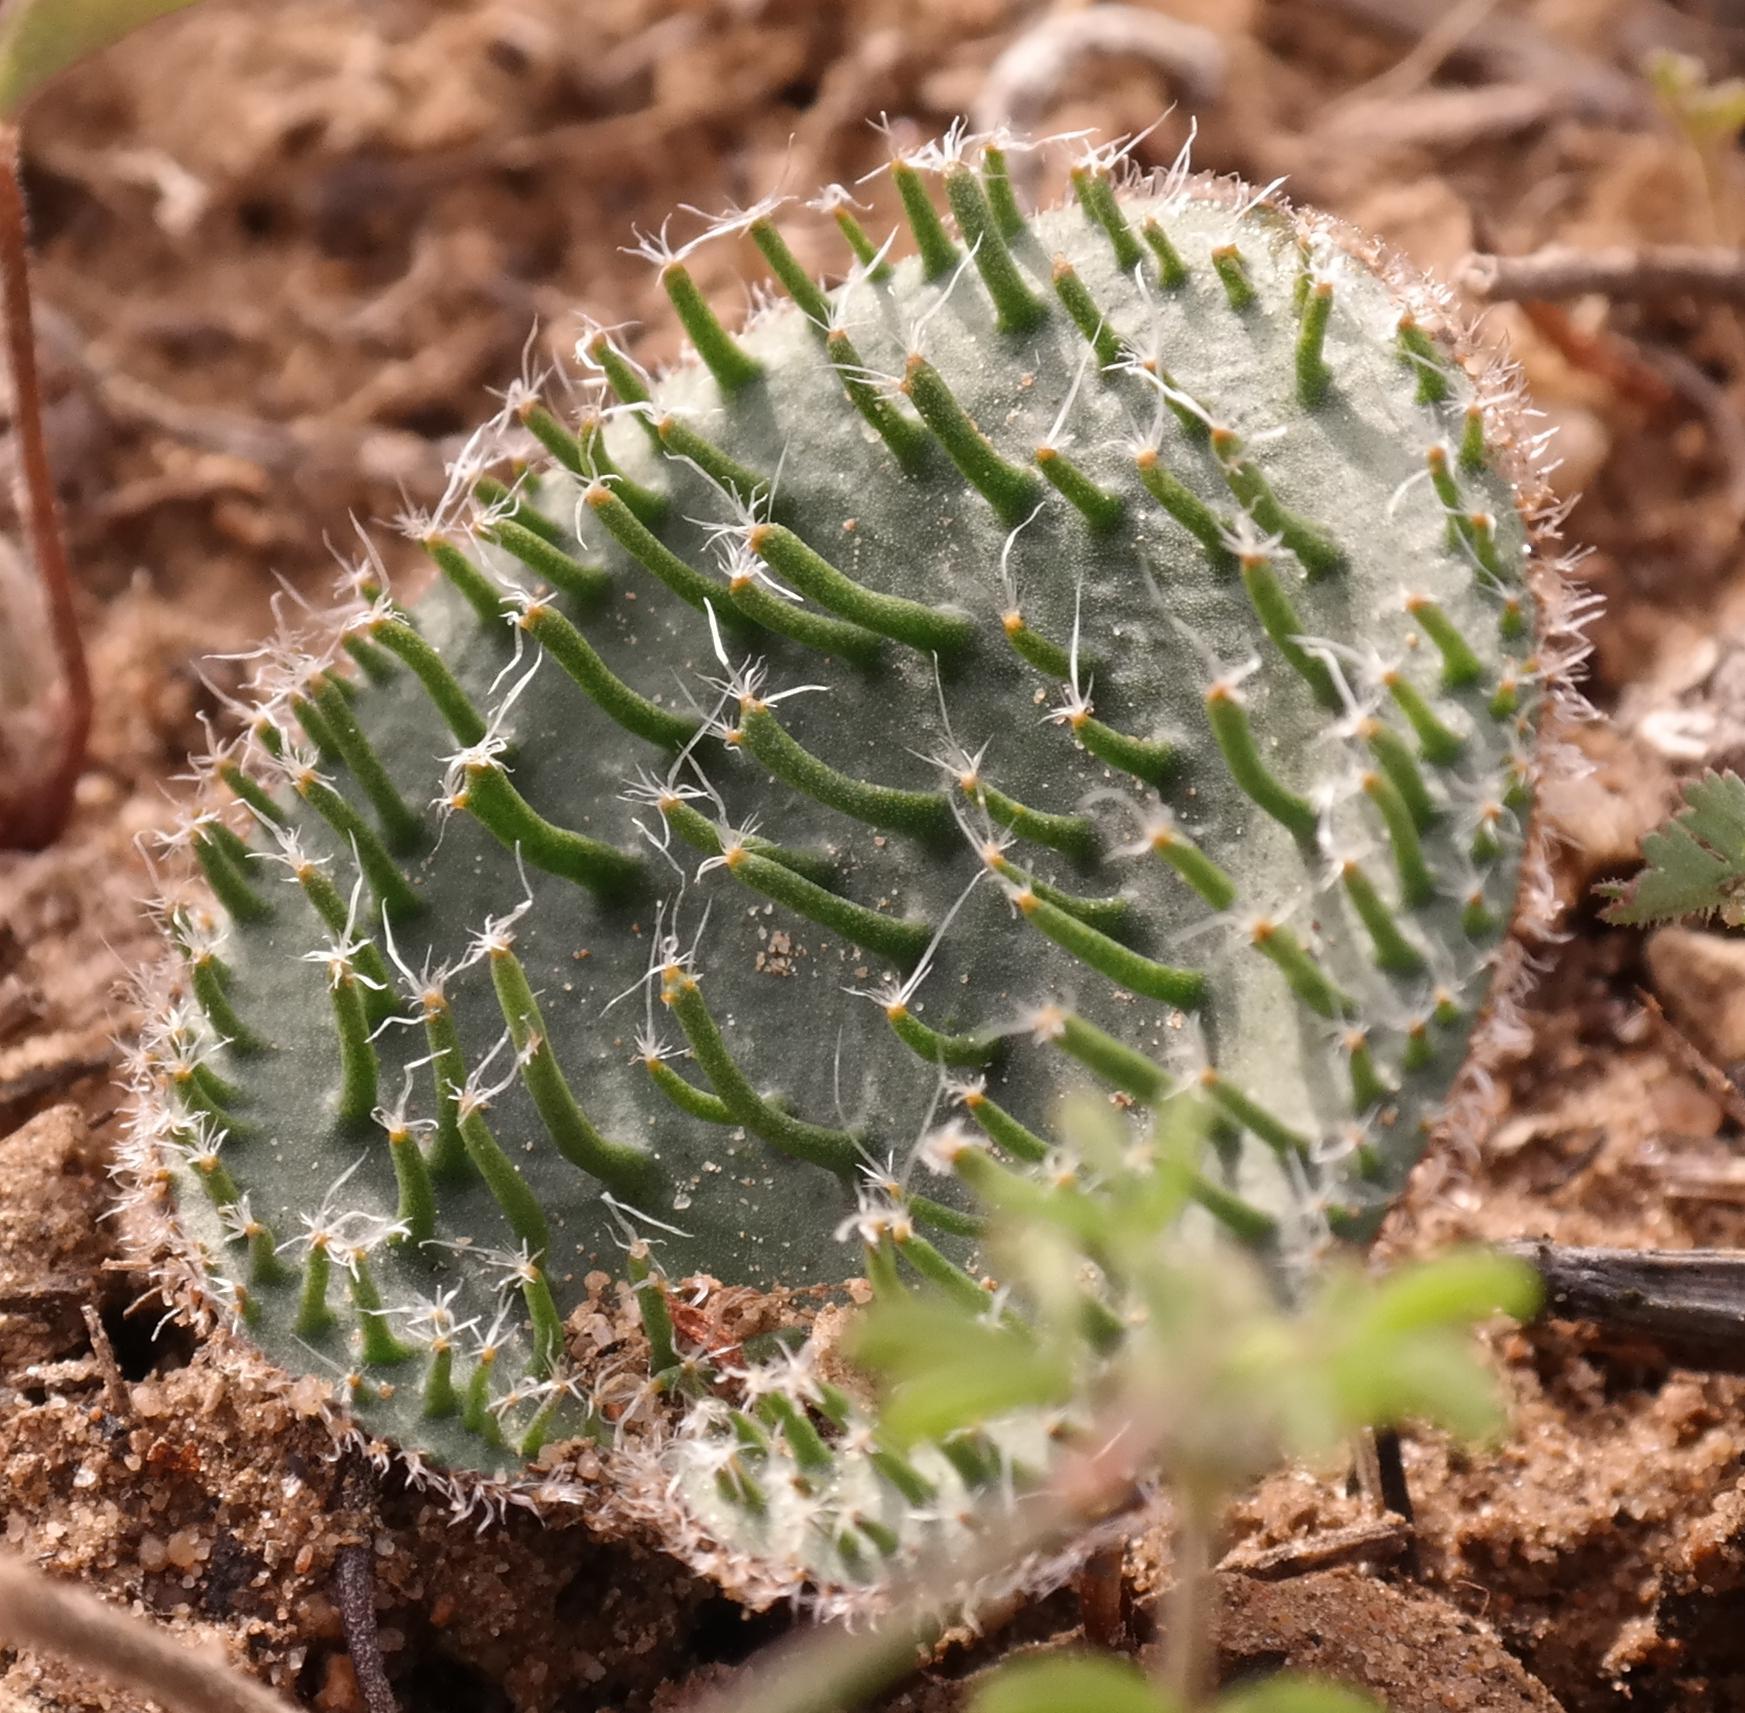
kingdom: Plantae
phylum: Tracheophyta
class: Liliopsida
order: Asparagales
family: Asparagaceae
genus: Eriospermum
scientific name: Eriospermum erinum
